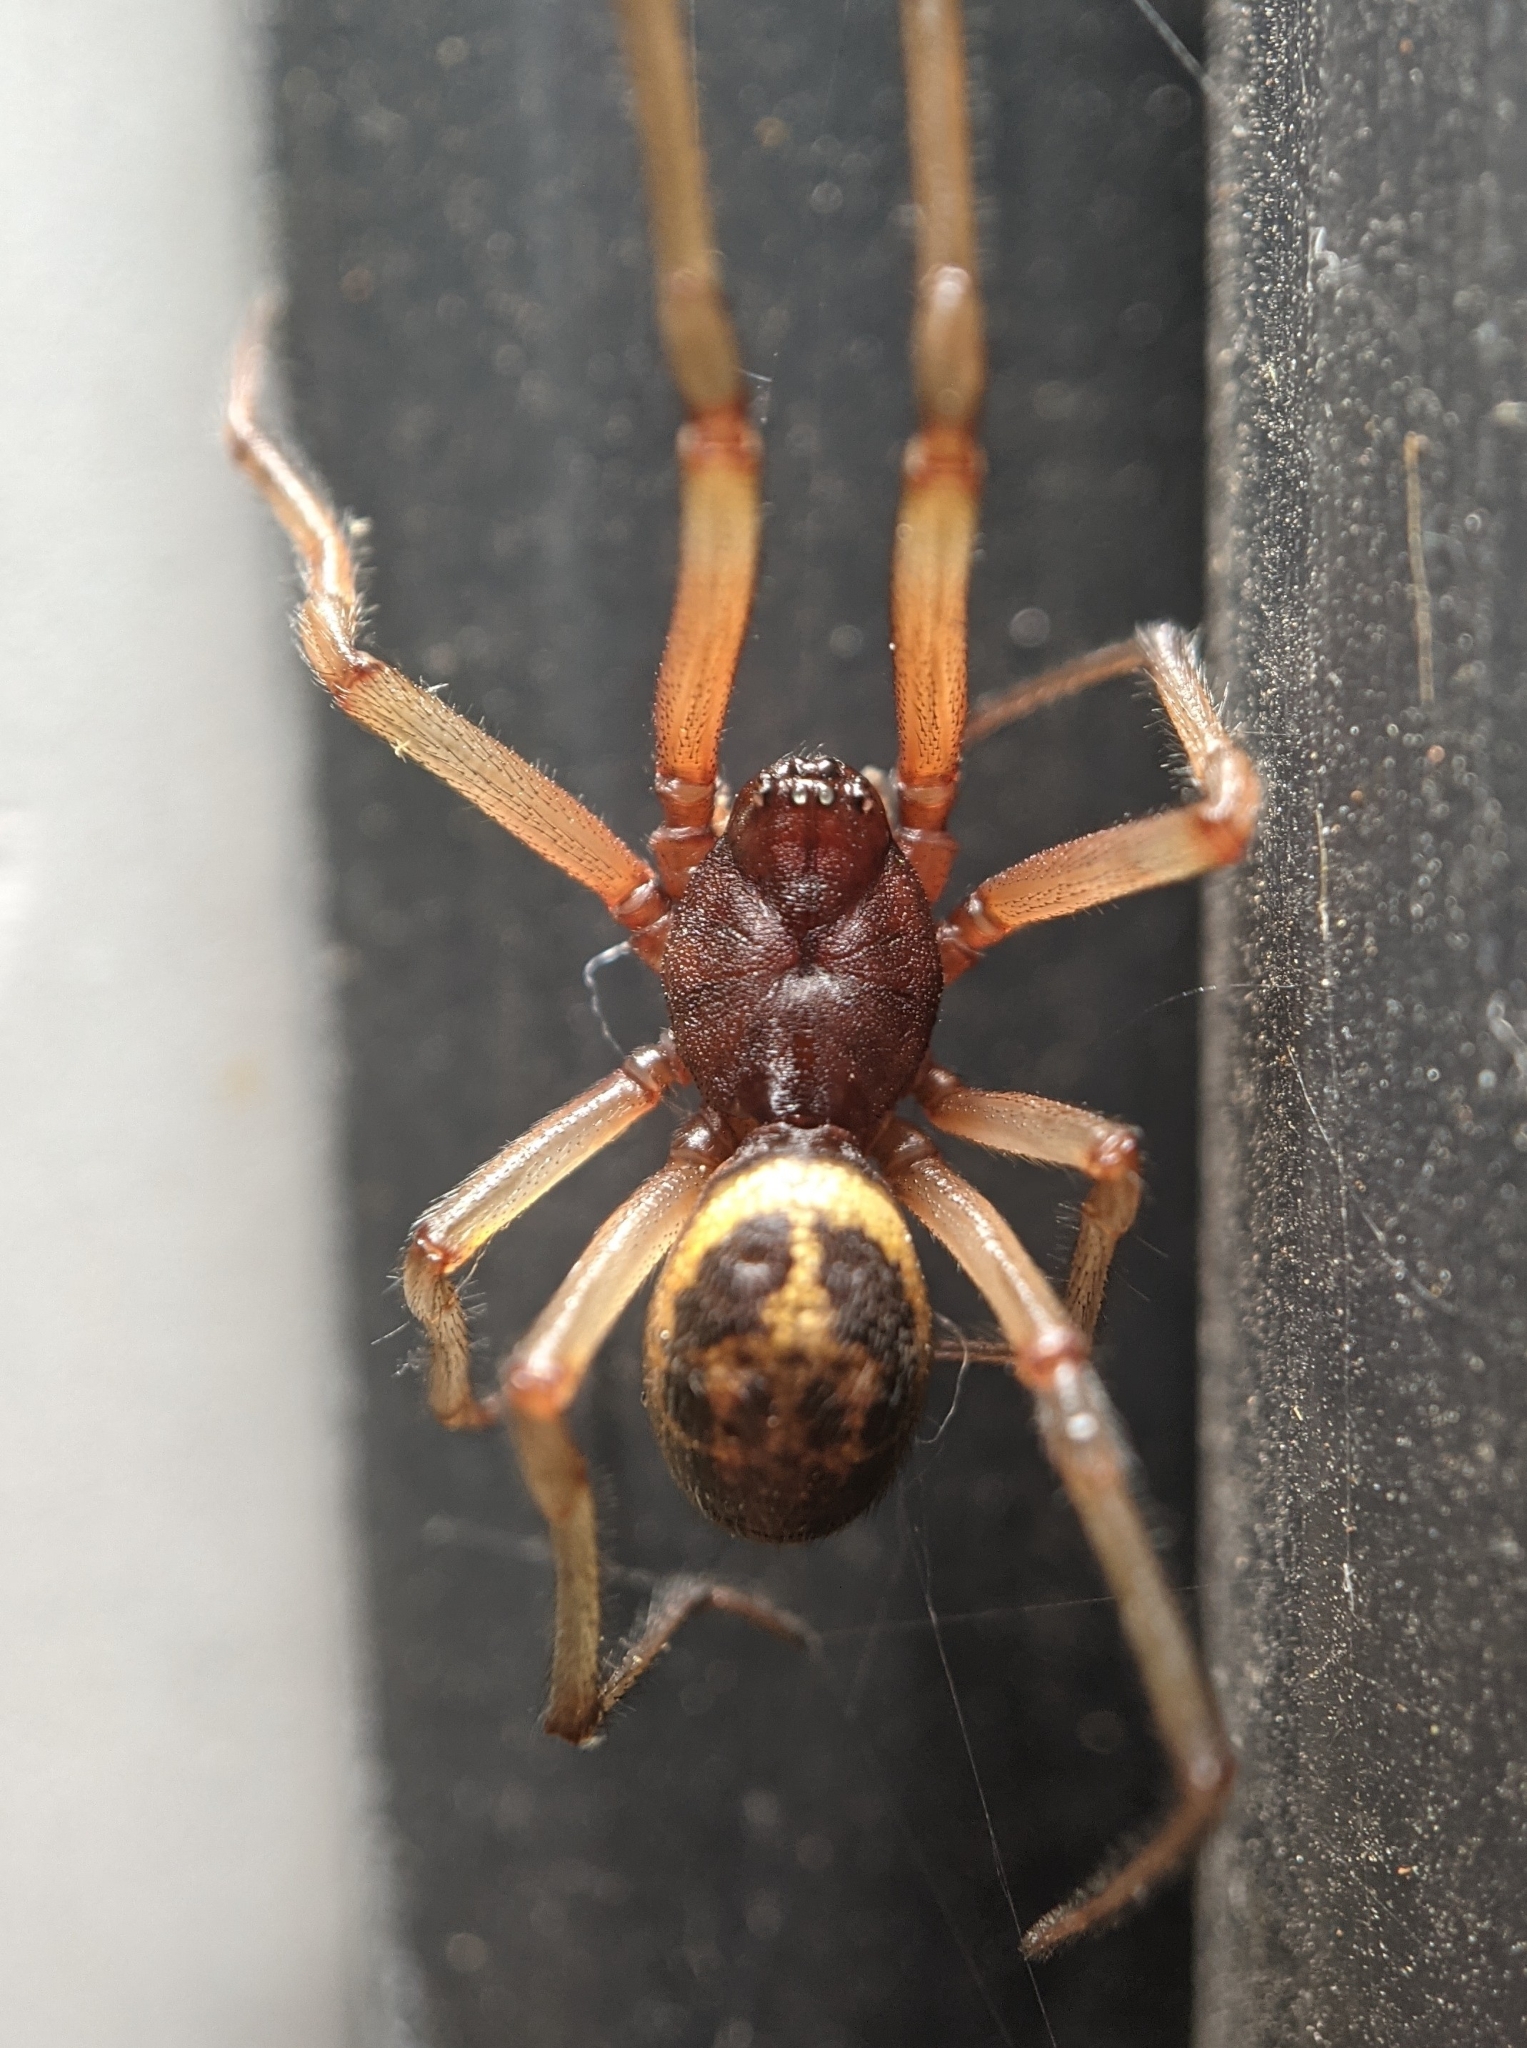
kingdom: Animalia
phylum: Arthropoda
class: Arachnida
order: Araneae
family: Theridiidae
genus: Steatoda
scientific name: Steatoda nobilis
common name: Cobweb weaver
